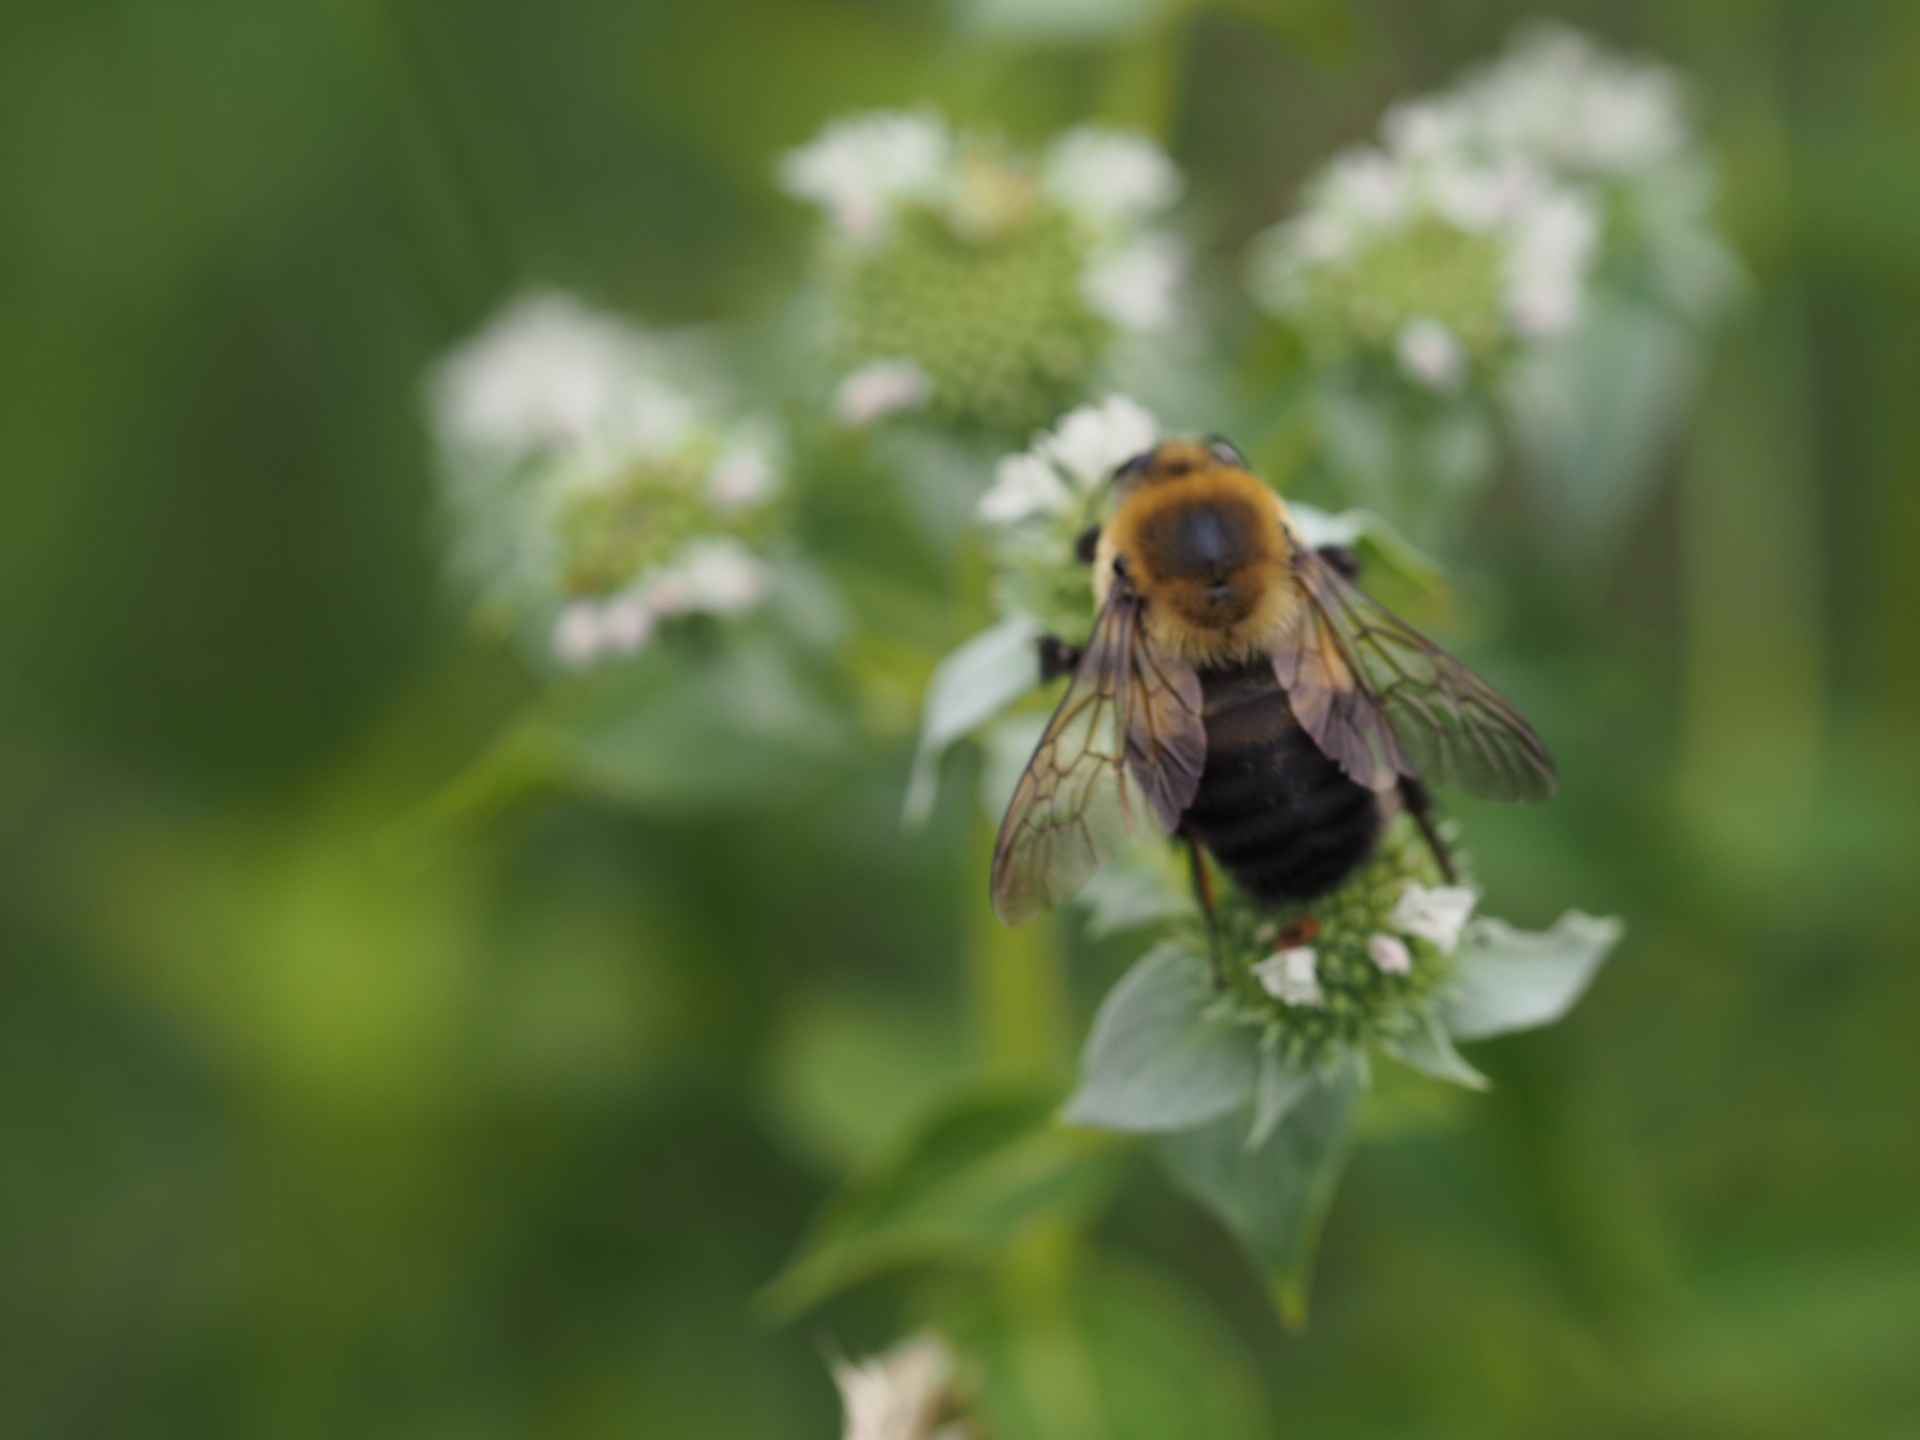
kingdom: Animalia
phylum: Arthropoda
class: Insecta
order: Hymenoptera
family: Apidae
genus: Bombus
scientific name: Bombus griseocollis
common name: Brown-belted bumble bee
